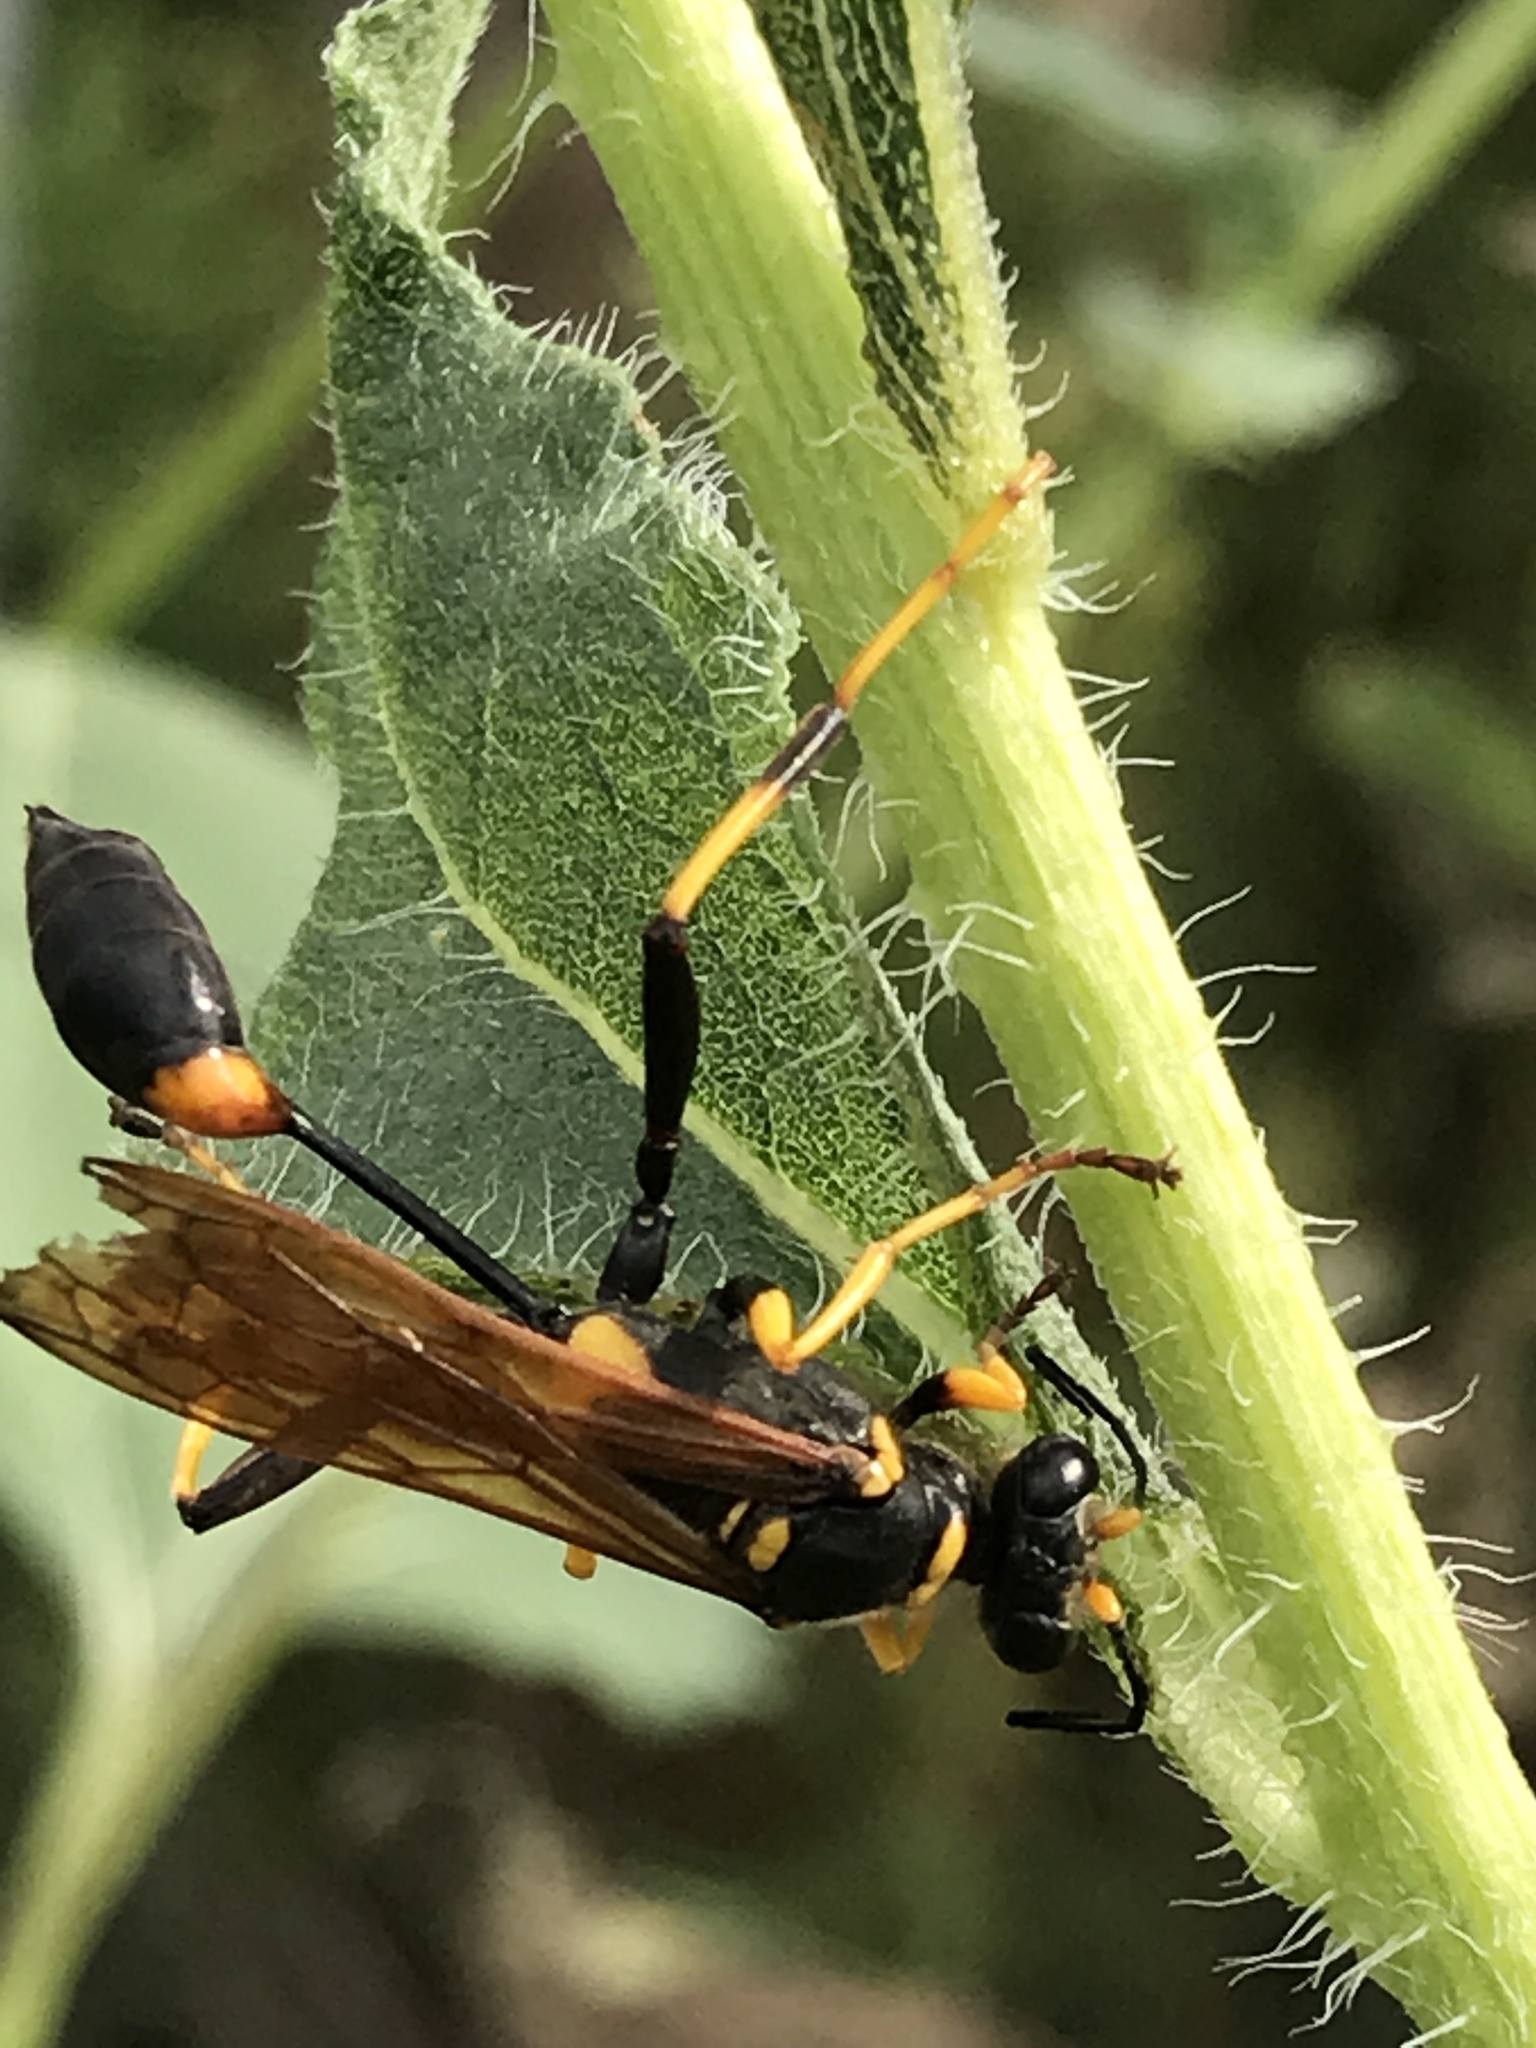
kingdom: Animalia
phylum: Arthropoda
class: Insecta
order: Hymenoptera
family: Sphecidae
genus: Sceliphron
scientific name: Sceliphron caementarium
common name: Mud dauber
